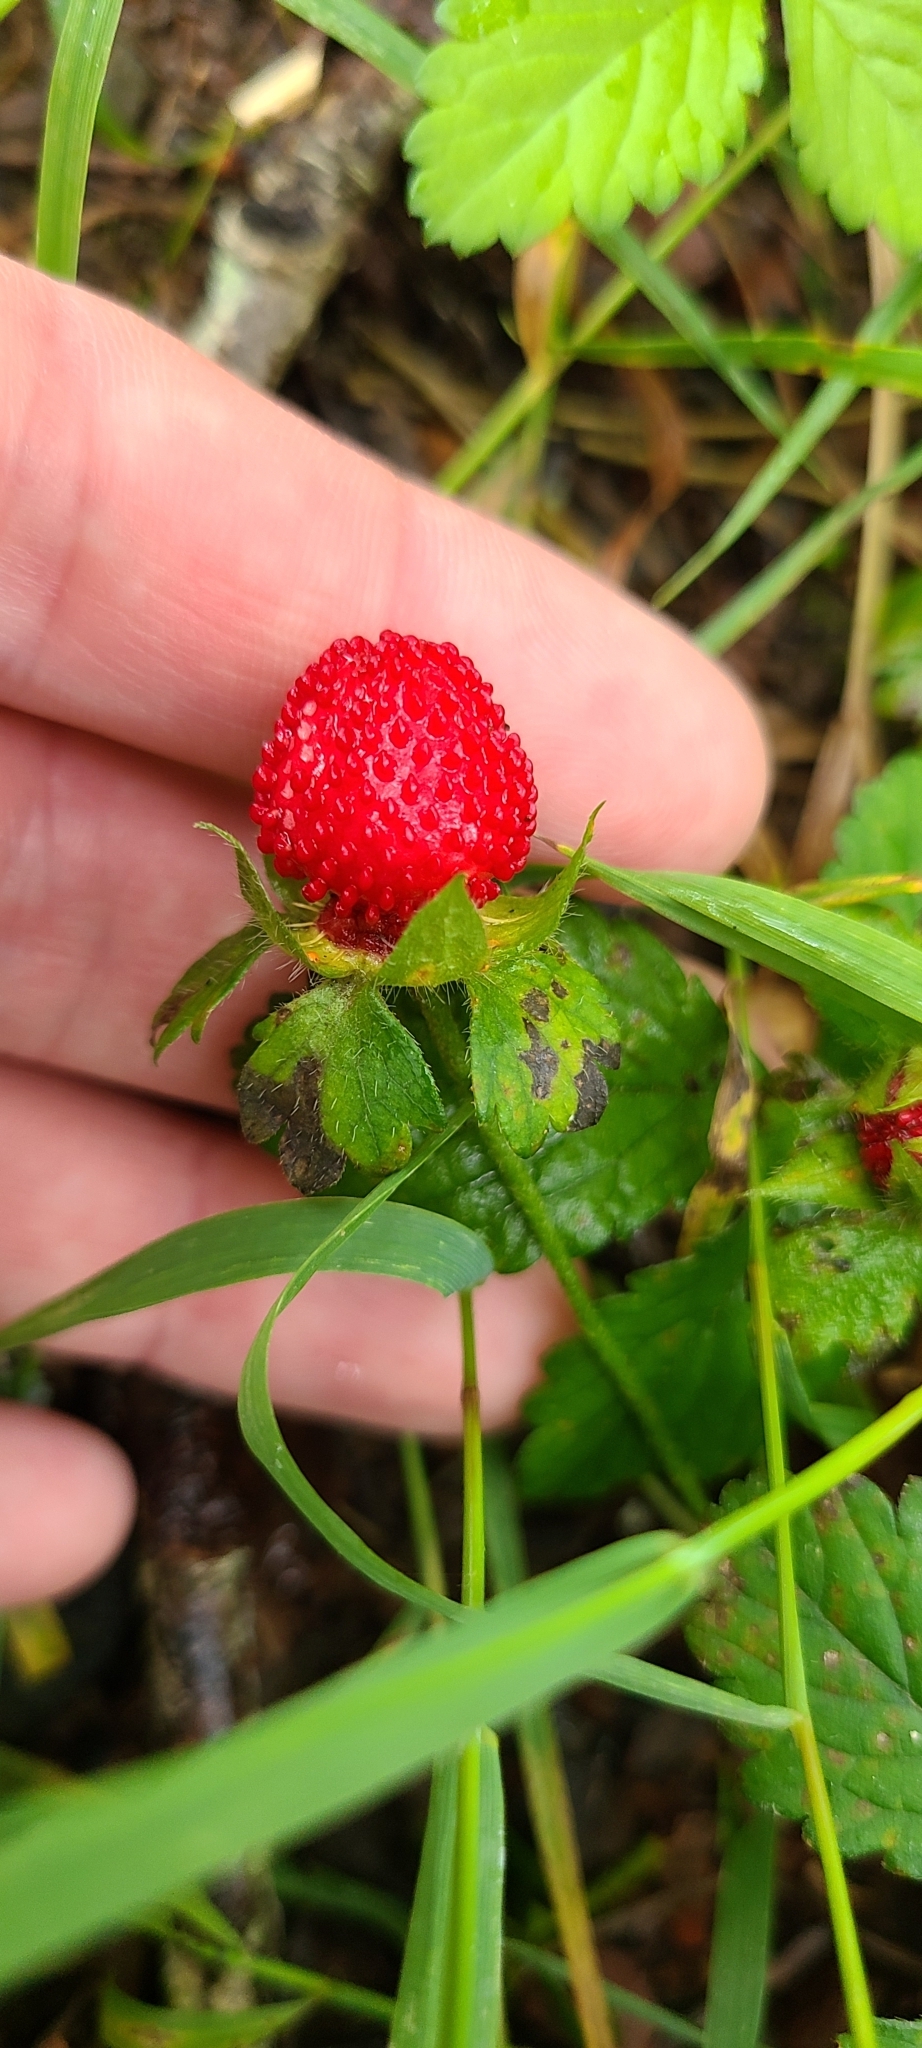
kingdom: Plantae
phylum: Tracheophyta
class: Magnoliopsida
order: Rosales
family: Rosaceae
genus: Potentilla
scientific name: Potentilla indica
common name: Yellow-flowered strawberry
